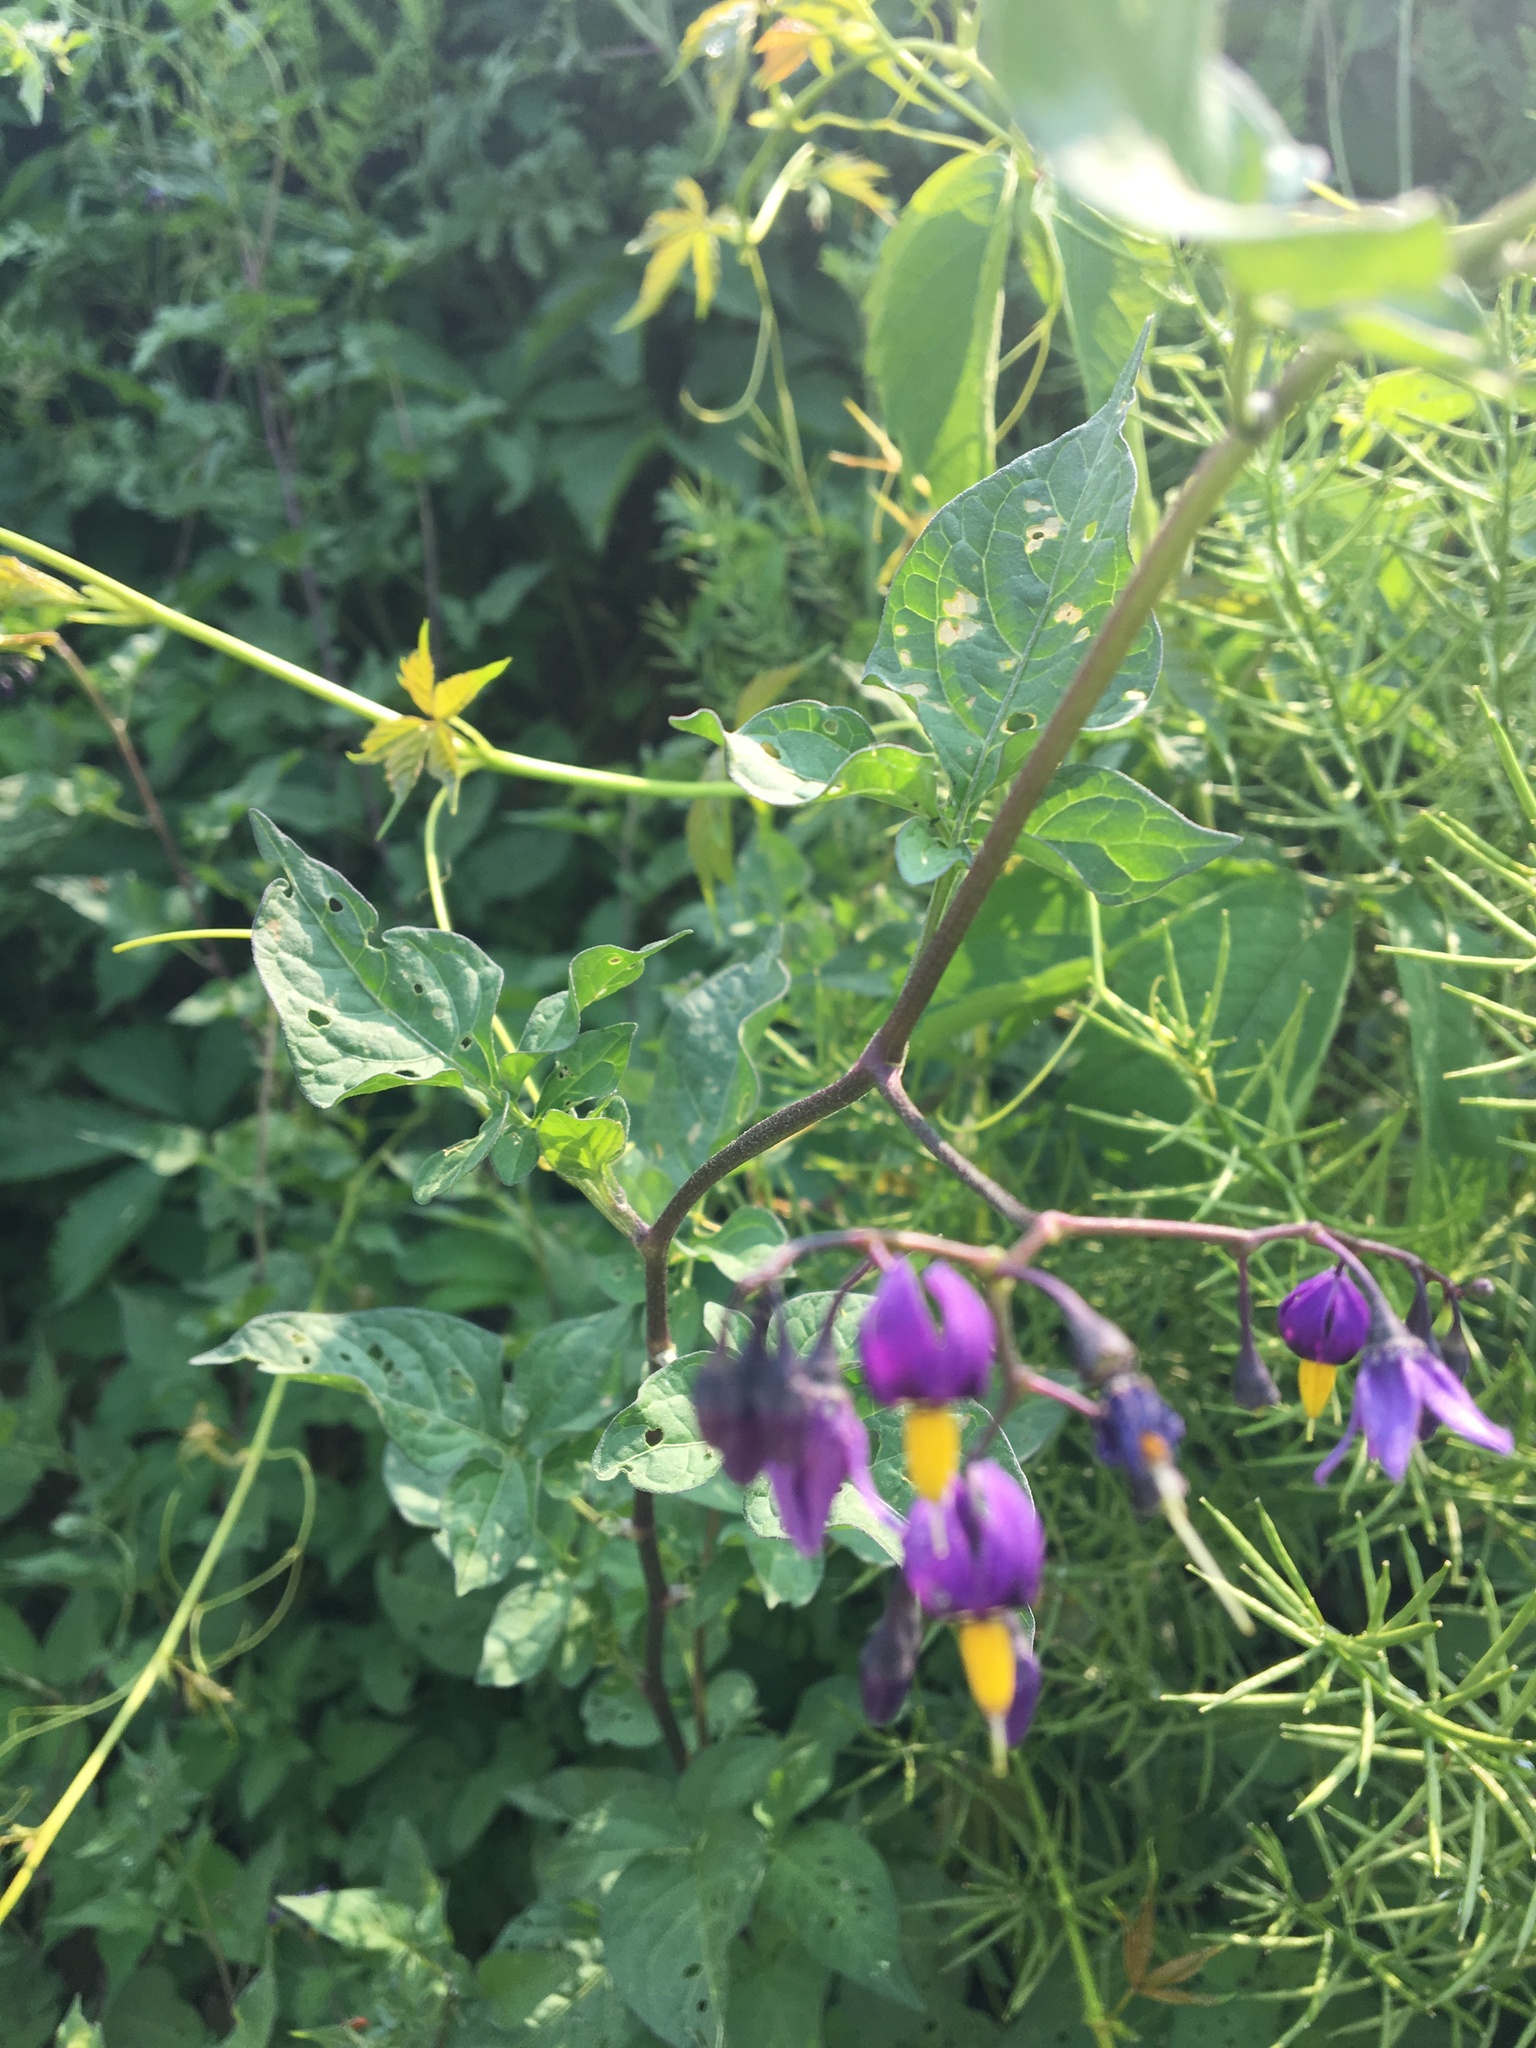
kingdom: Plantae
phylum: Tracheophyta
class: Magnoliopsida
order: Solanales
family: Solanaceae
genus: Solanum
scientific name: Solanum dulcamara
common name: Climbing nightshade
